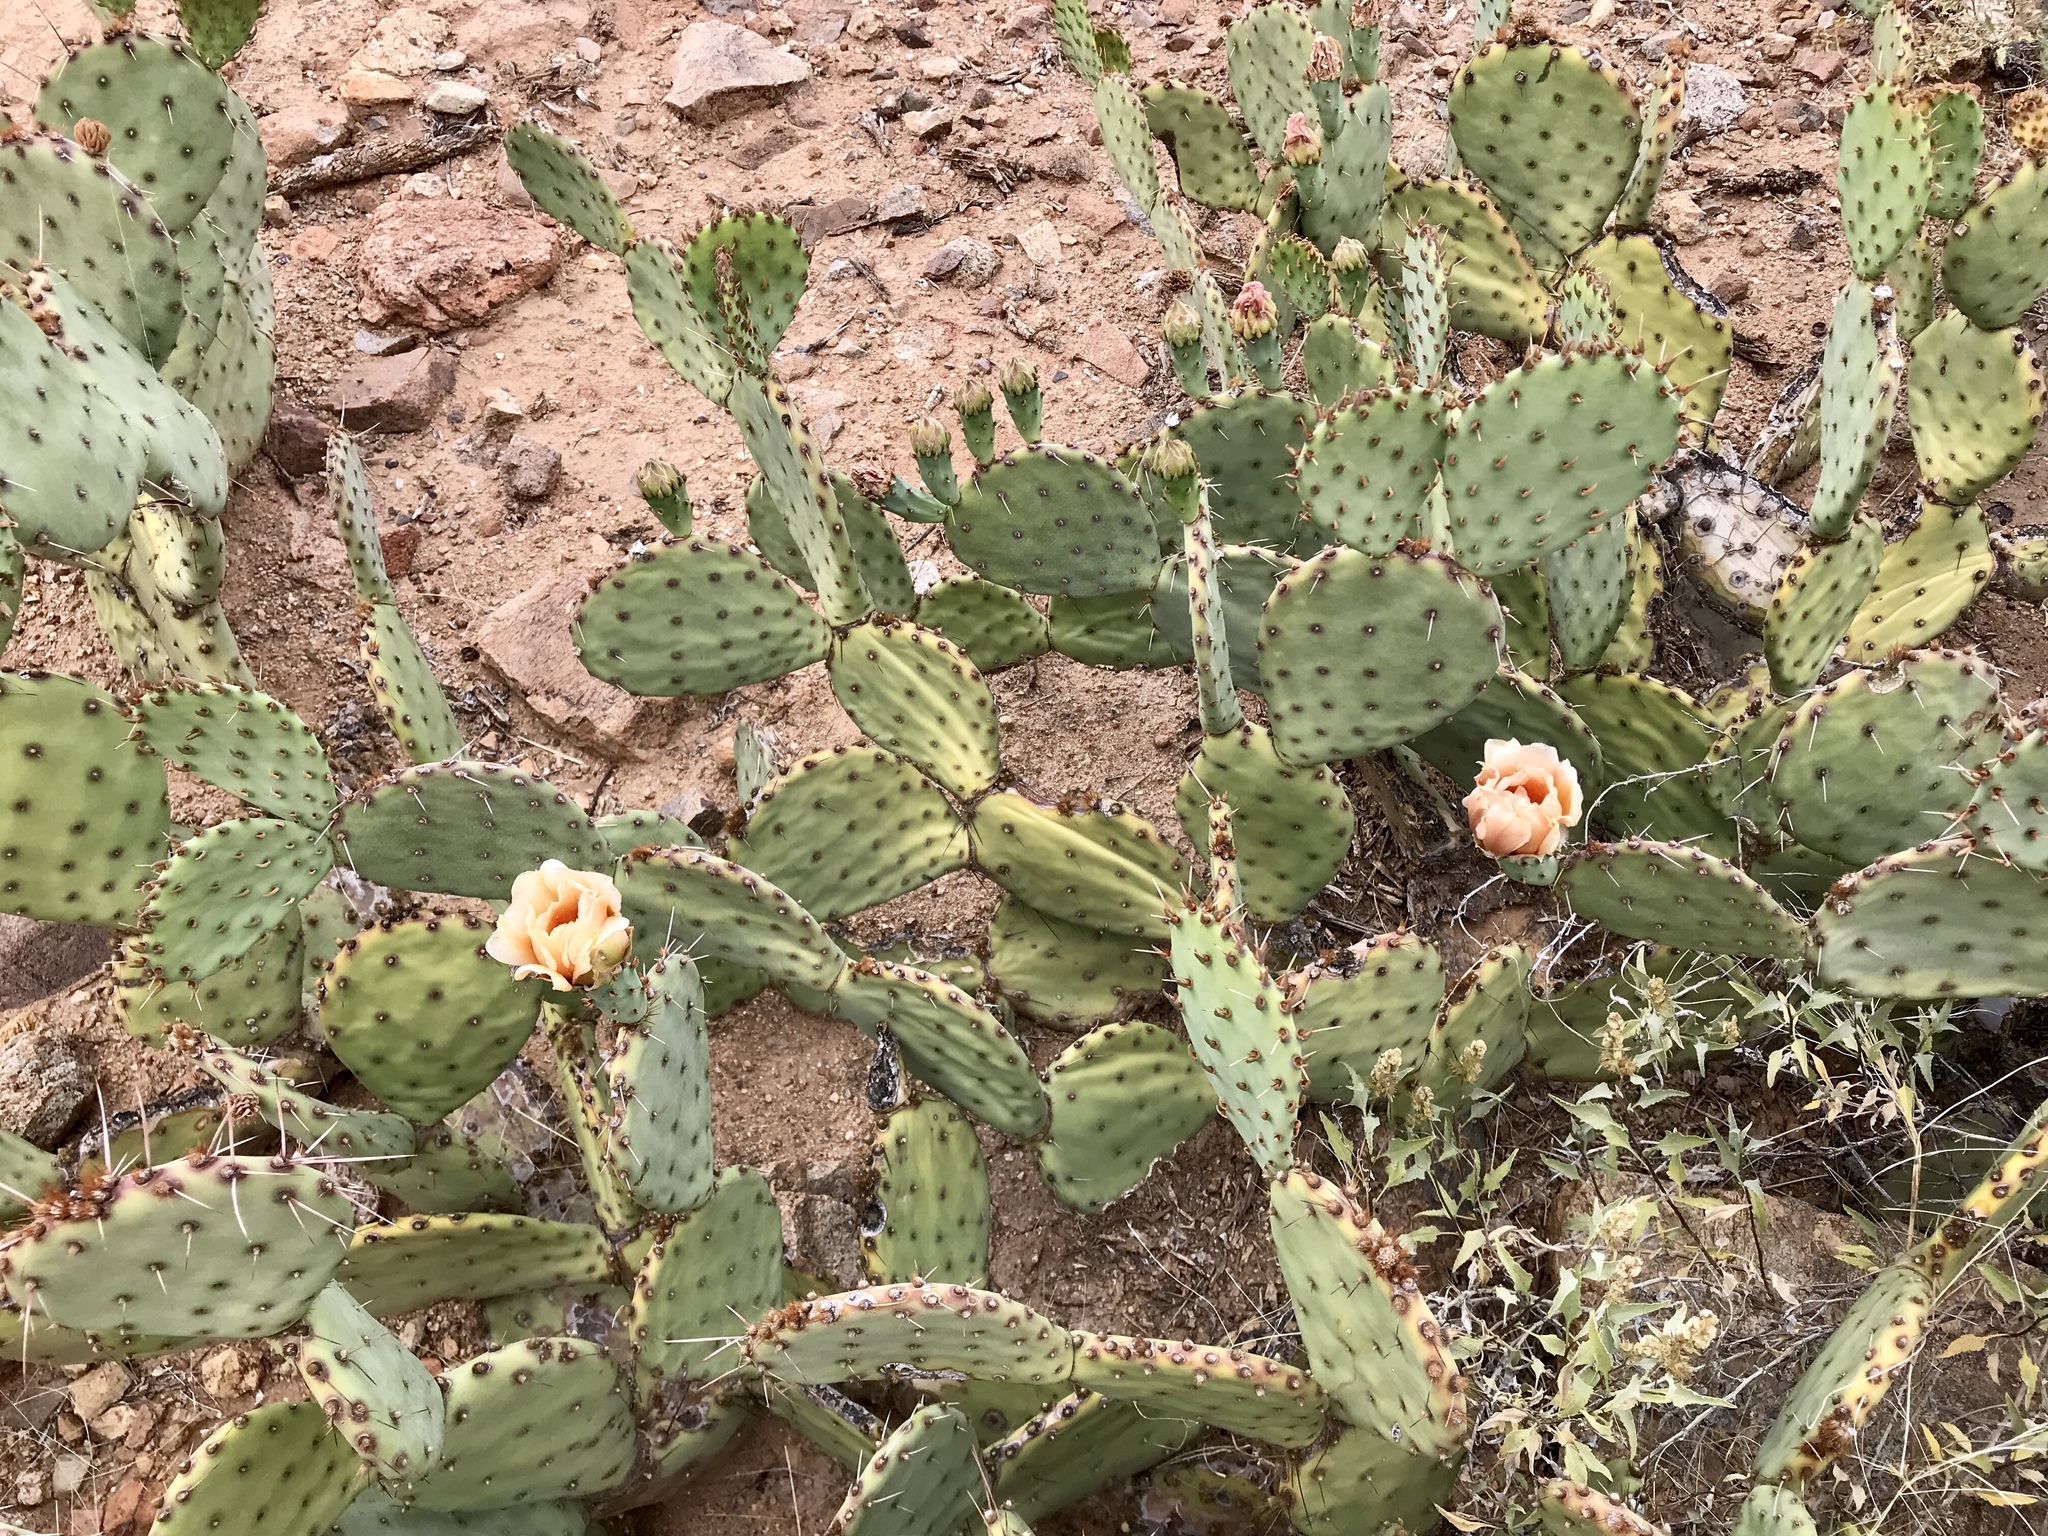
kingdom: Plantae
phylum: Tracheophyta
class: Magnoliopsida
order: Caryophyllales
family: Cactaceae
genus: Opuntia
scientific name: Opuntia engelmannii
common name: Cactus-apple
